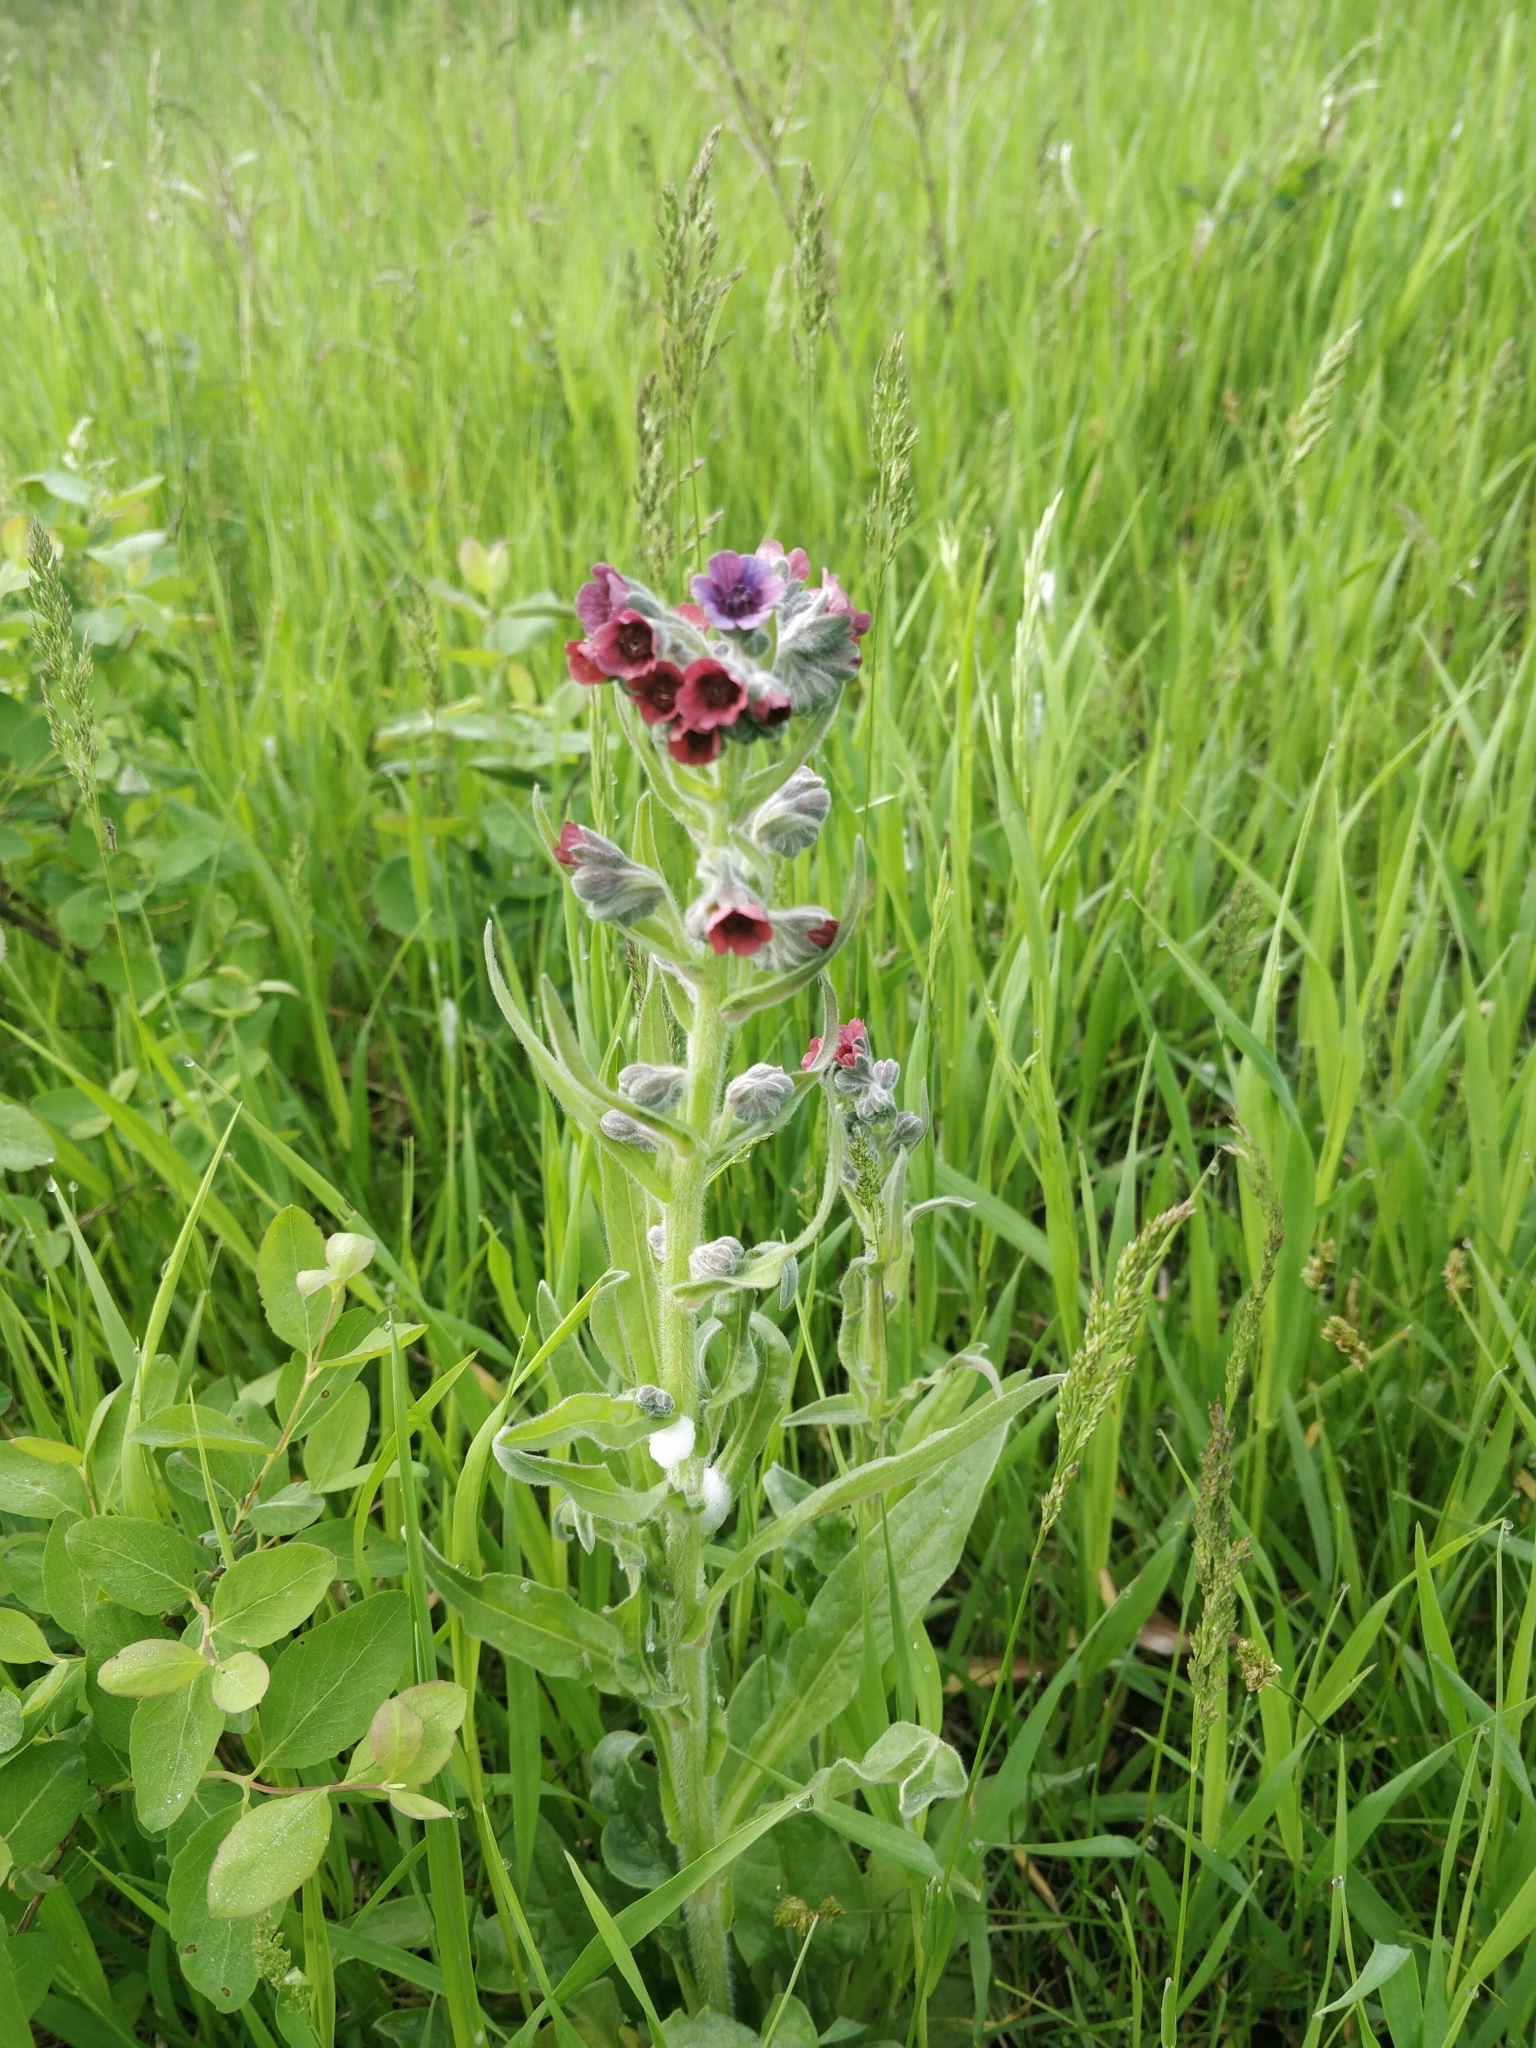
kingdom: Plantae
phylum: Tracheophyta
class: Magnoliopsida
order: Boraginales
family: Boraginaceae
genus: Cynoglossum
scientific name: Cynoglossum officinale
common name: Hound's-tongue
